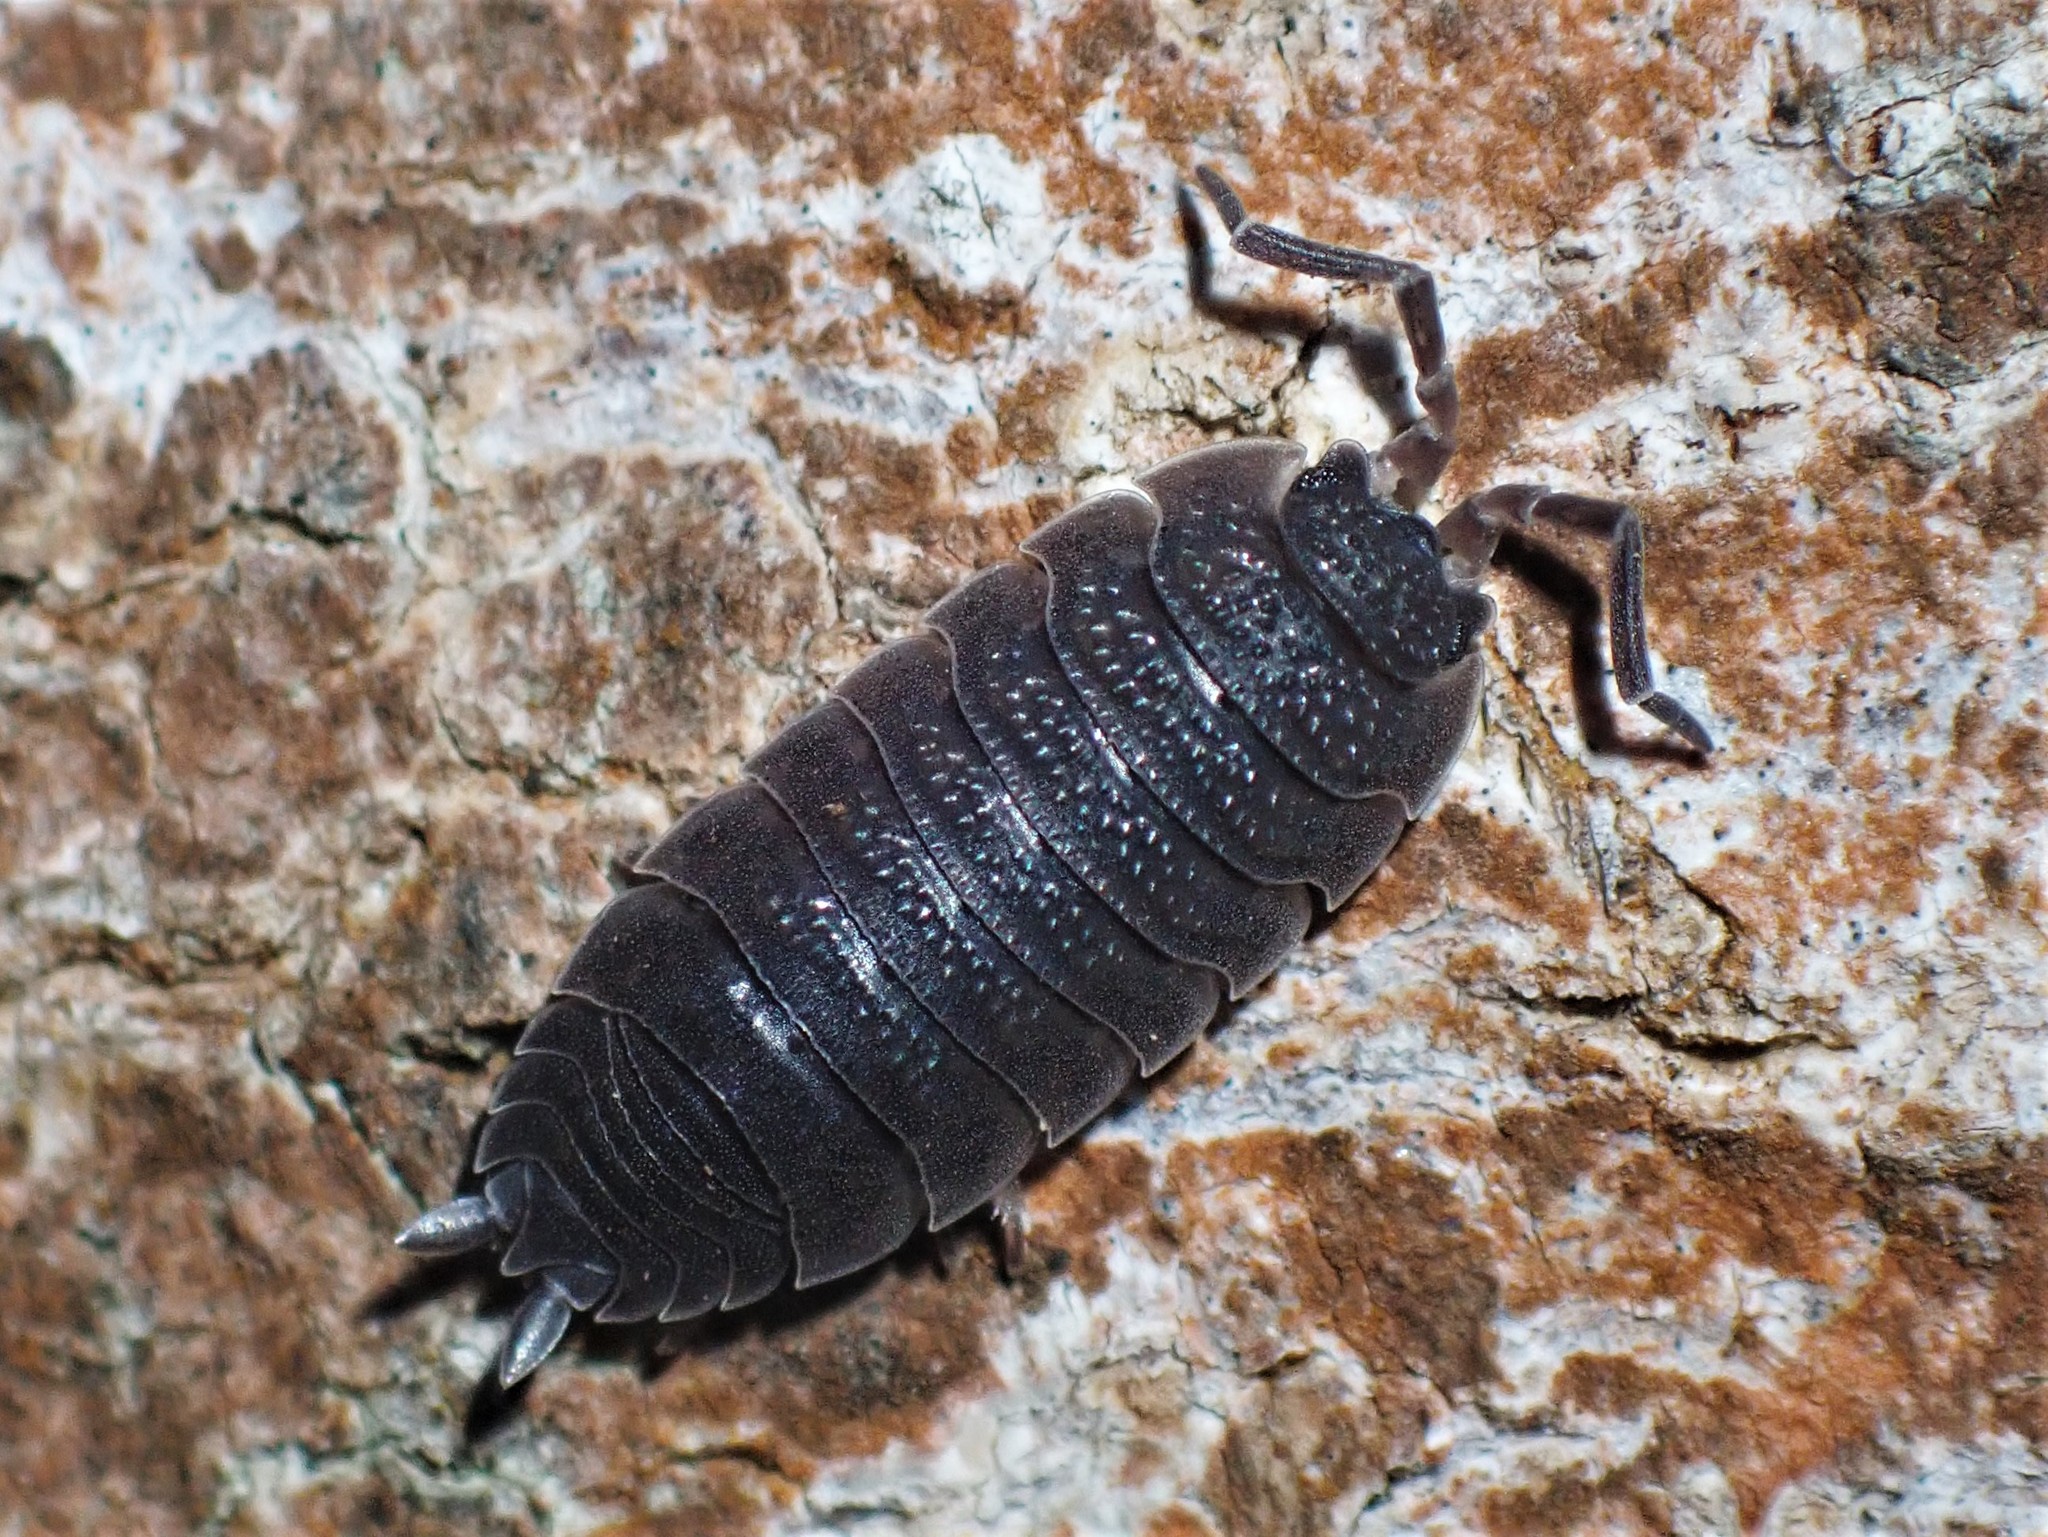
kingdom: Animalia
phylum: Arthropoda
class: Malacostraca
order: Isopoda
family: Porcellionidae
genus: Porcellio
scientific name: Porcellio scaber
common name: Common rough woodlouse
